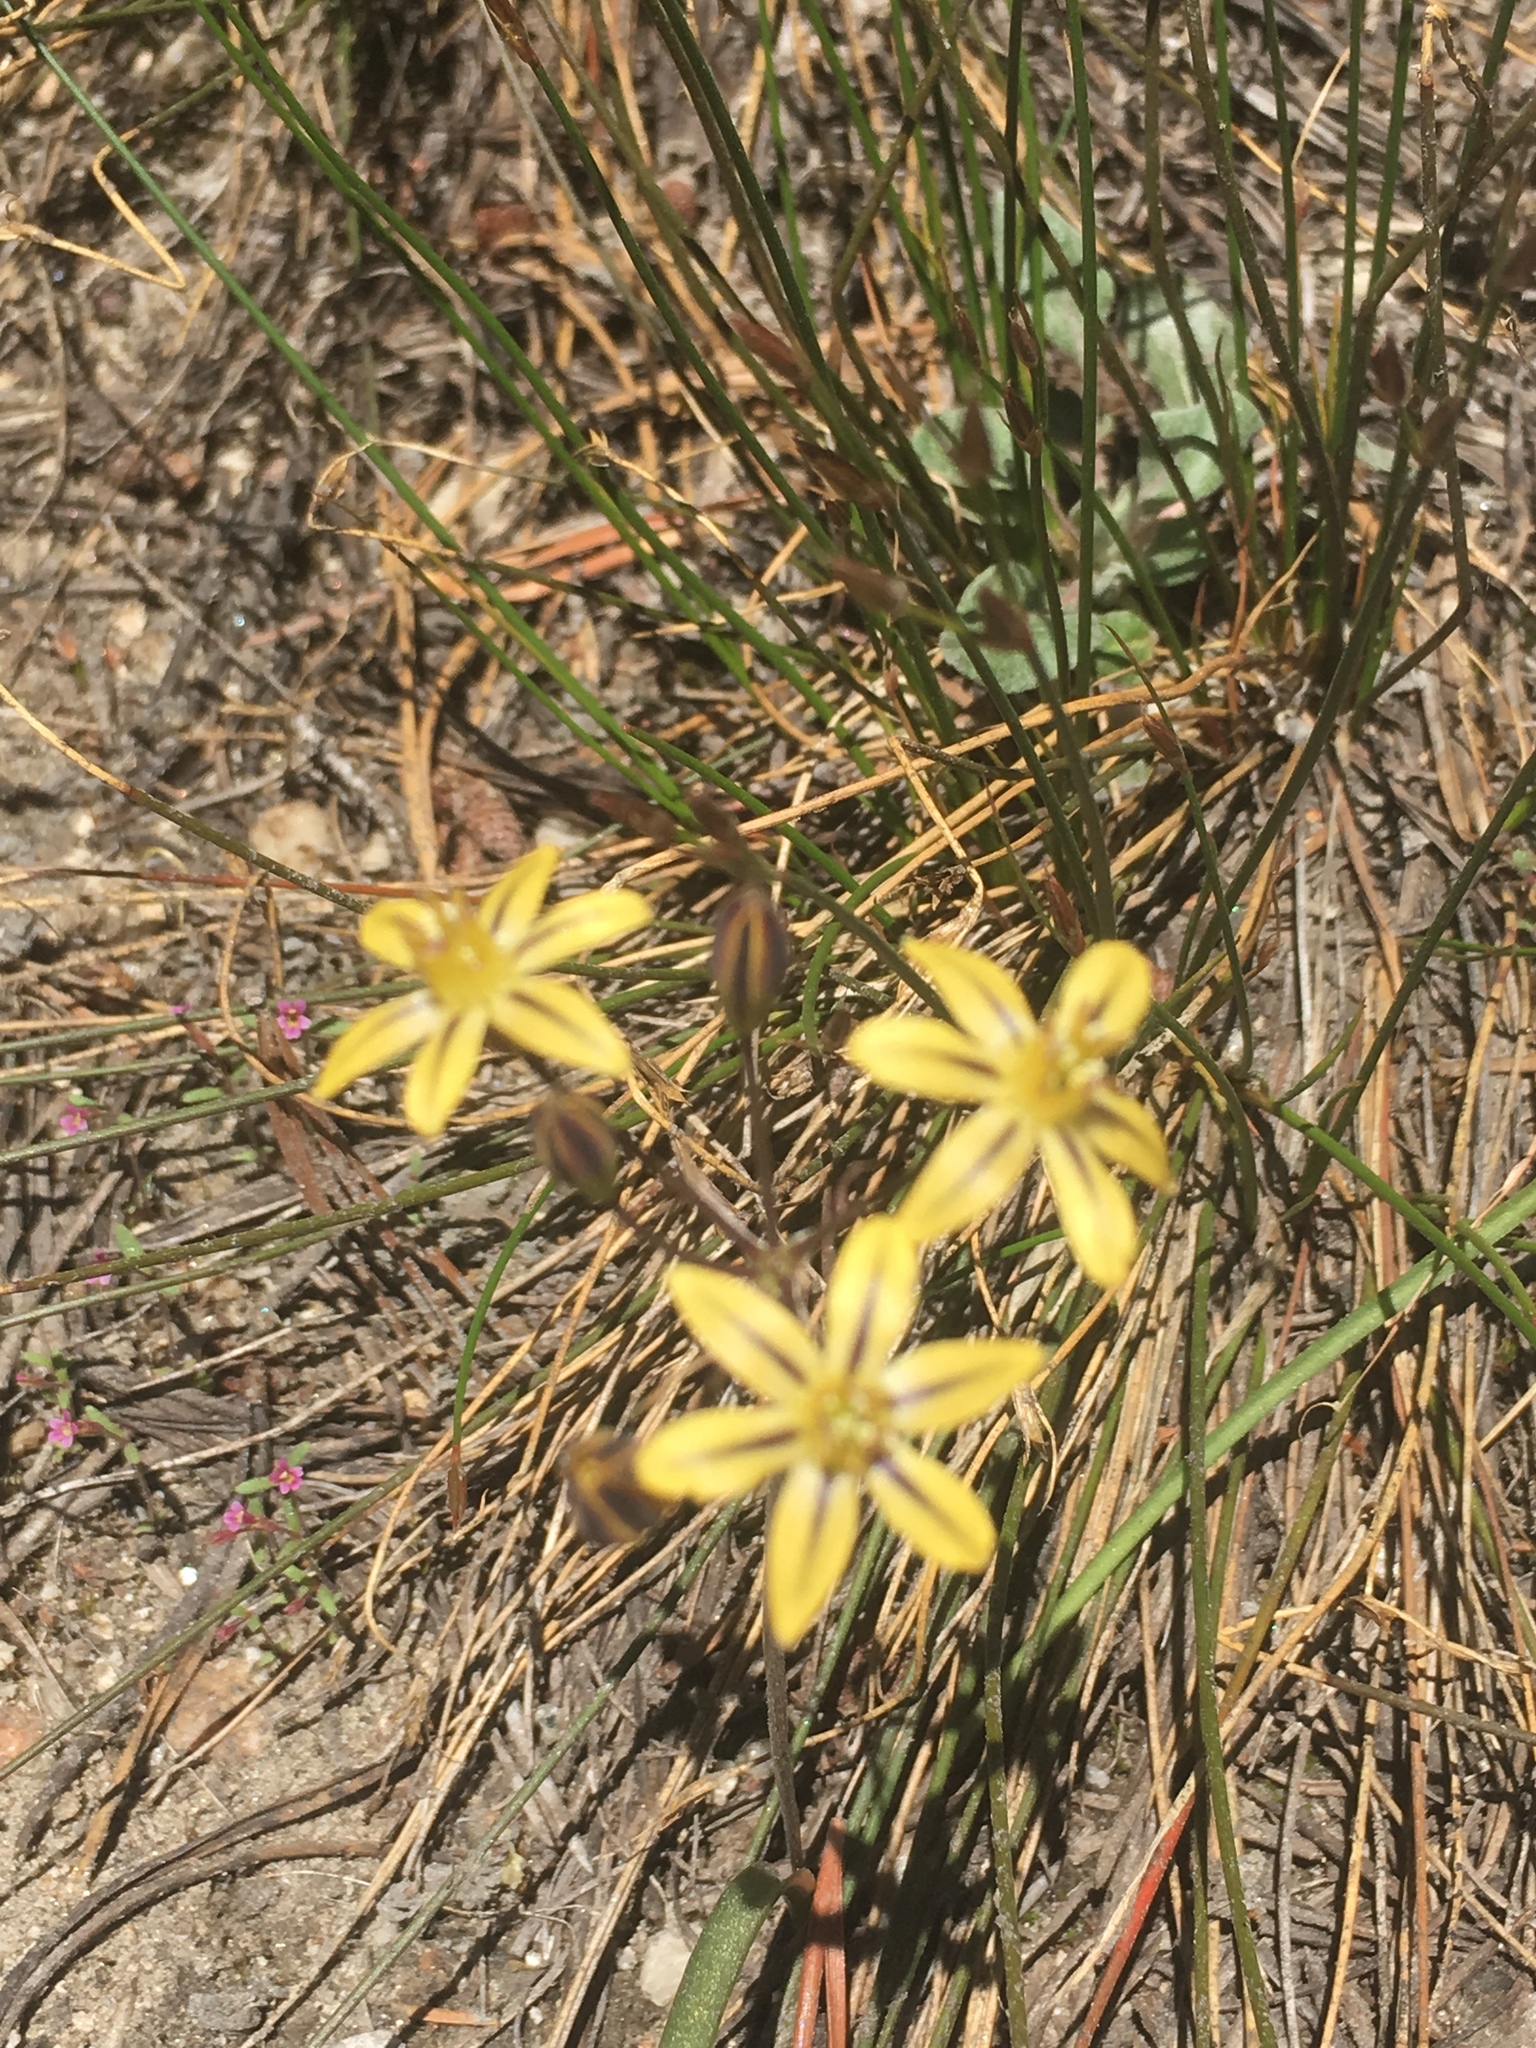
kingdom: Plantae
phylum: Tracheophyta
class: Liliopsida
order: Asparagales
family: Asparagaceae
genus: Triteleia
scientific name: Triteleia ixioides
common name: Yellow-brodiaea
